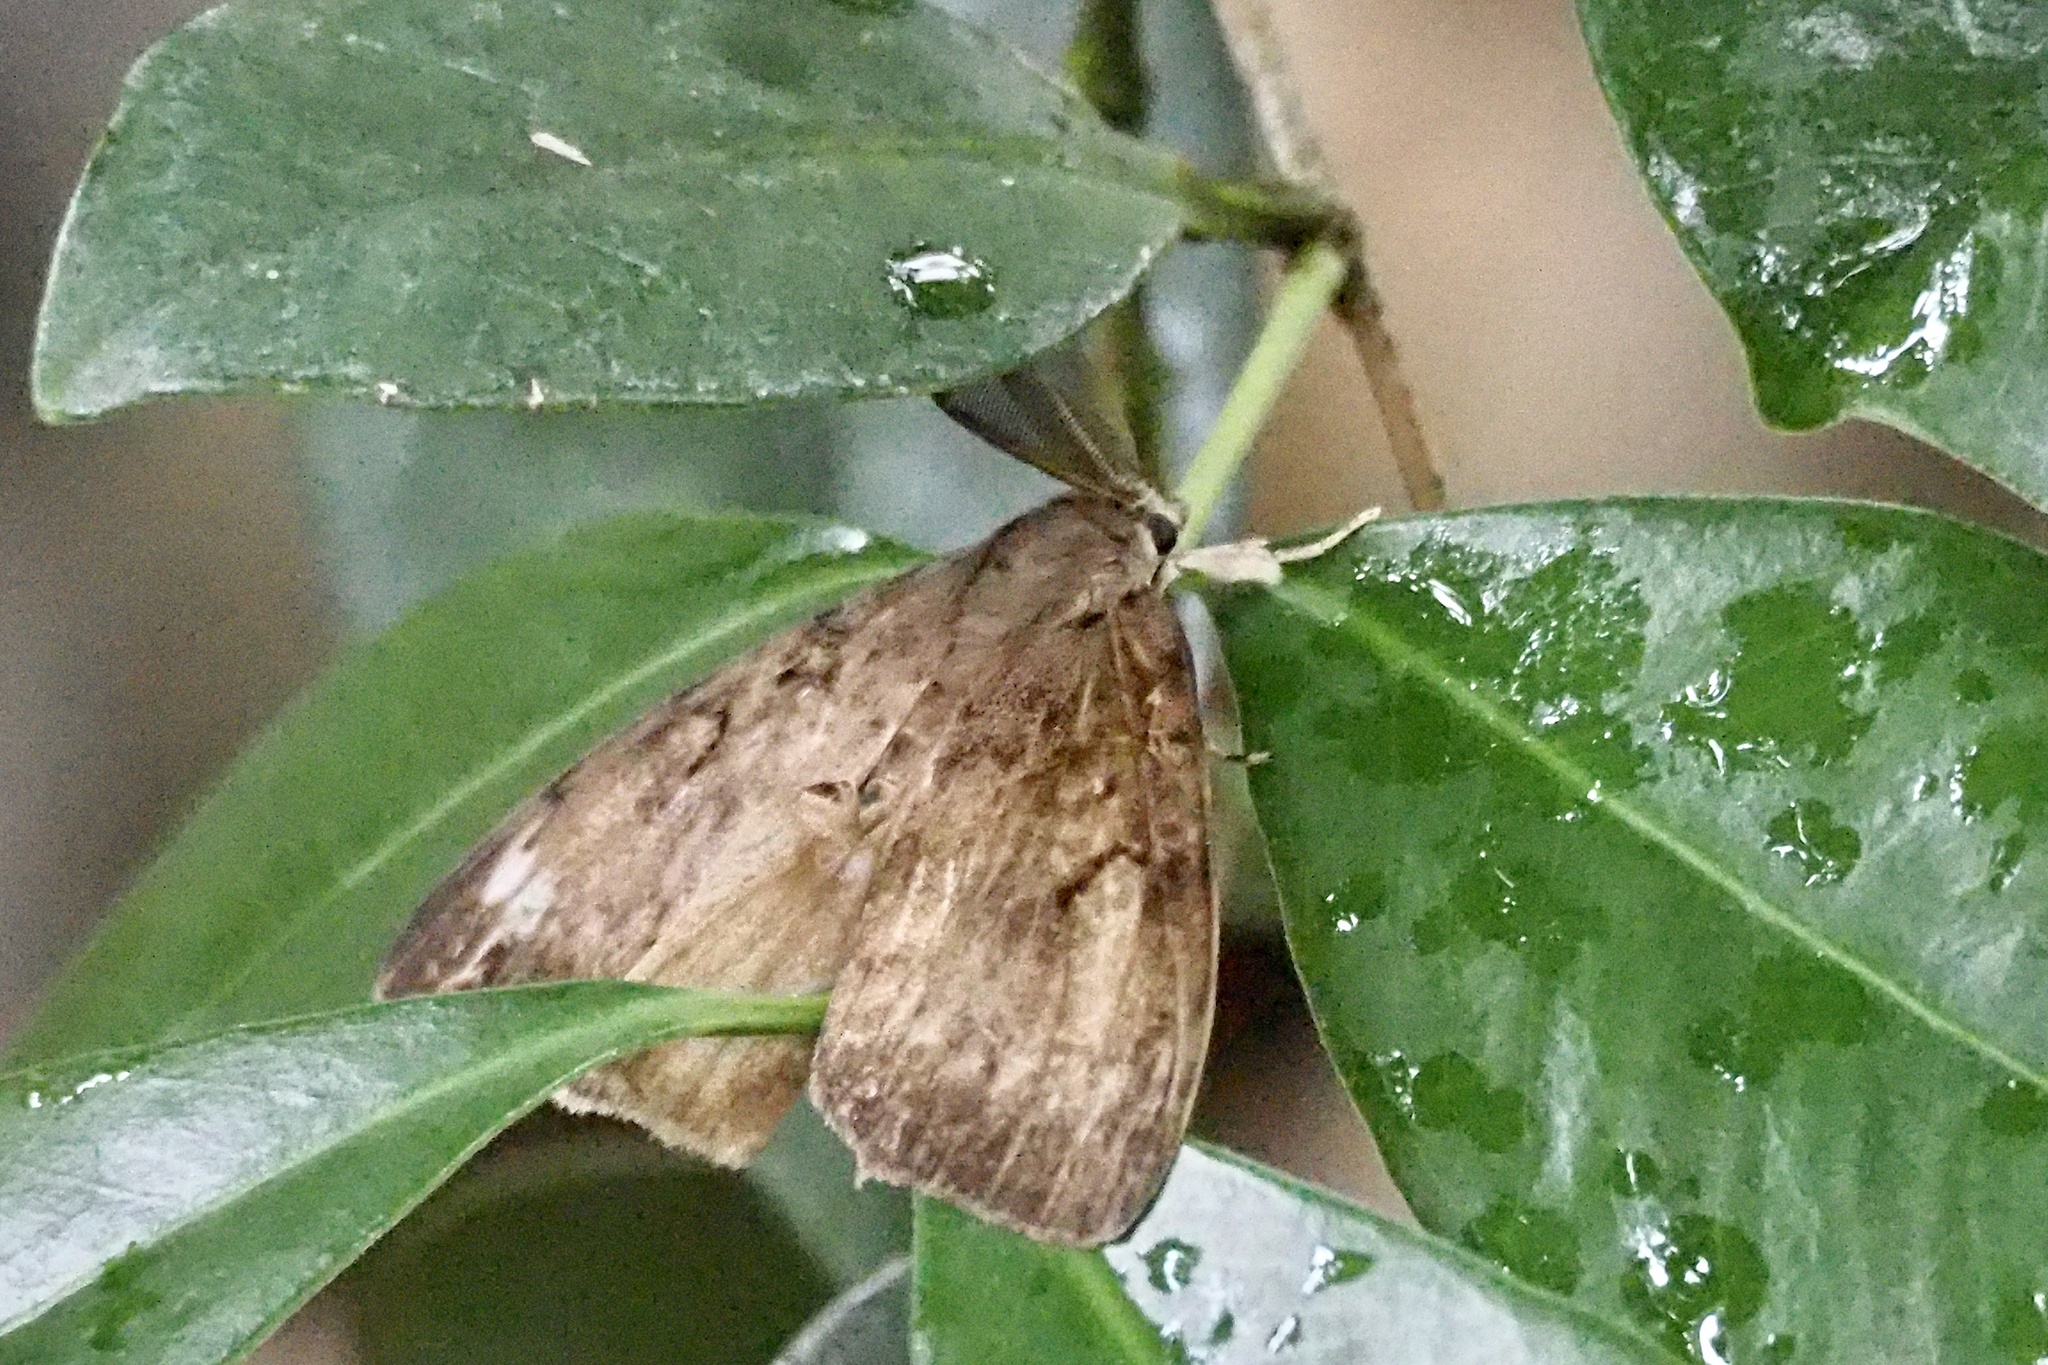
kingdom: Animalia
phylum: Arthropoda
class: Insecta
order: Lepidoptera
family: Erebidae
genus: Lymantria
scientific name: Lymantria dispar
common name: Gypsy moth
